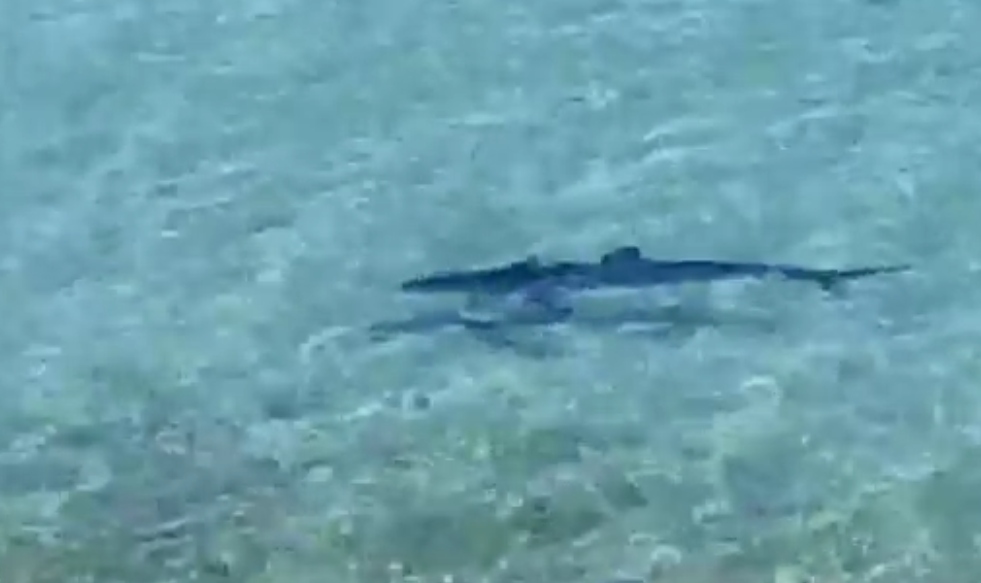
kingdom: Animalia
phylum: Chordata
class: Elasmobranchii
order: Carcharhiniformes
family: Carcharhinidae
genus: Prionace
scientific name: Prionace glauca
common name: Blue shark
